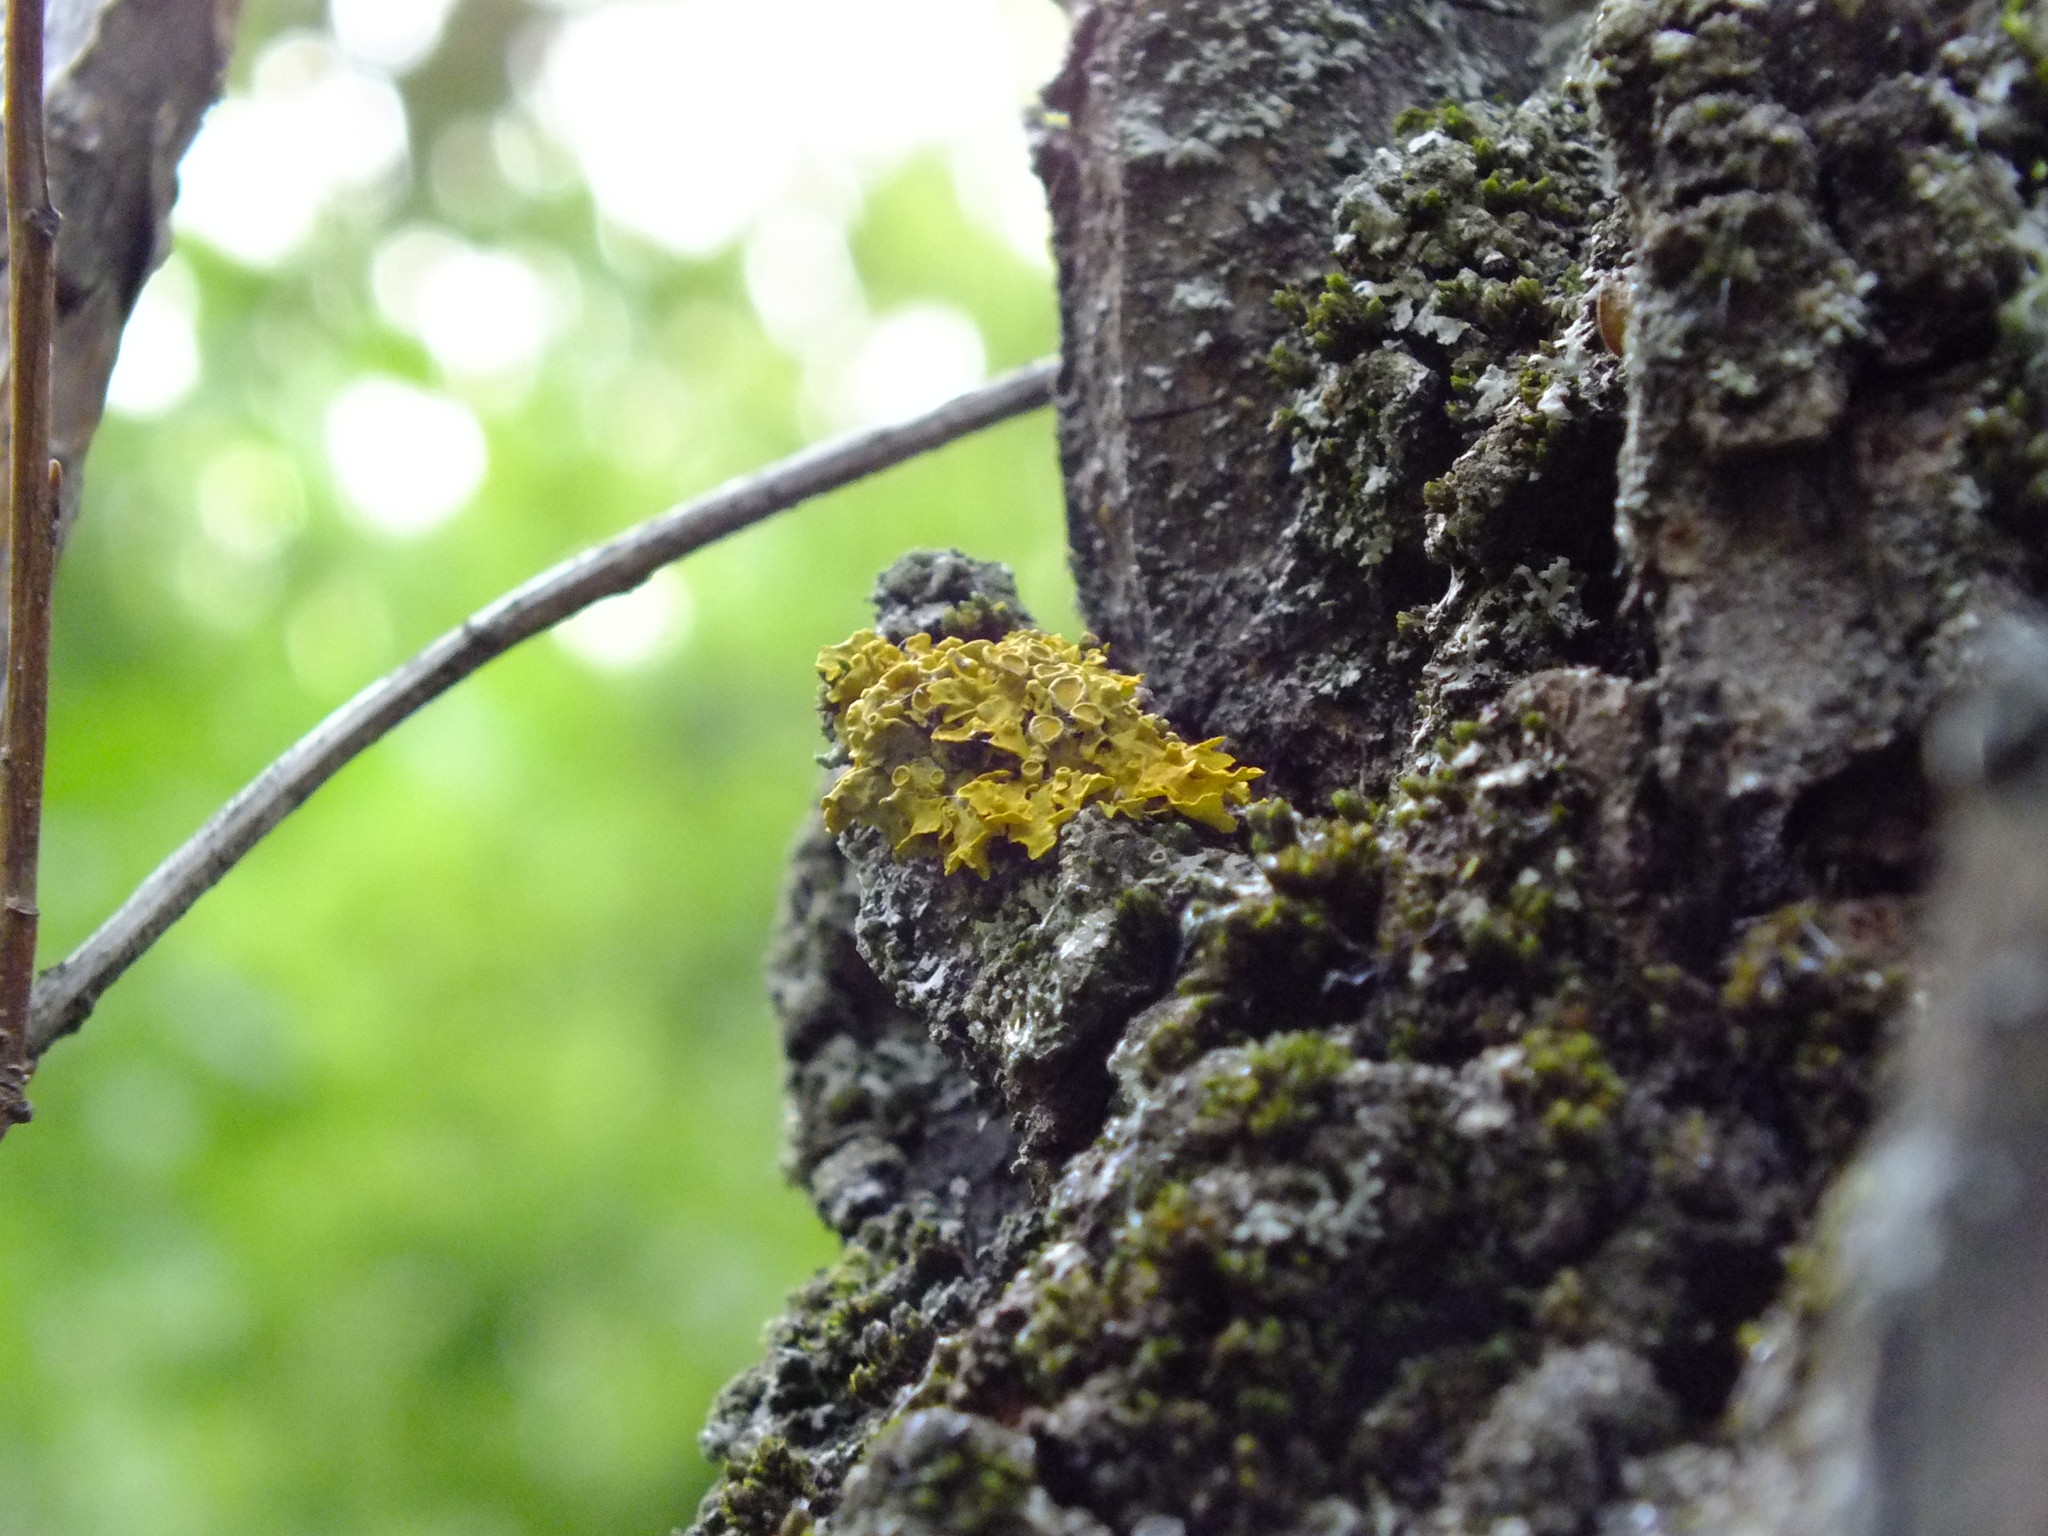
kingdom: Fungi
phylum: Ascomycota
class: Lecanoromycetes
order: Teloschistales
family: Teloschistaceae
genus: Xanthoria
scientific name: Xanthoria parietina
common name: Common orange lichen
